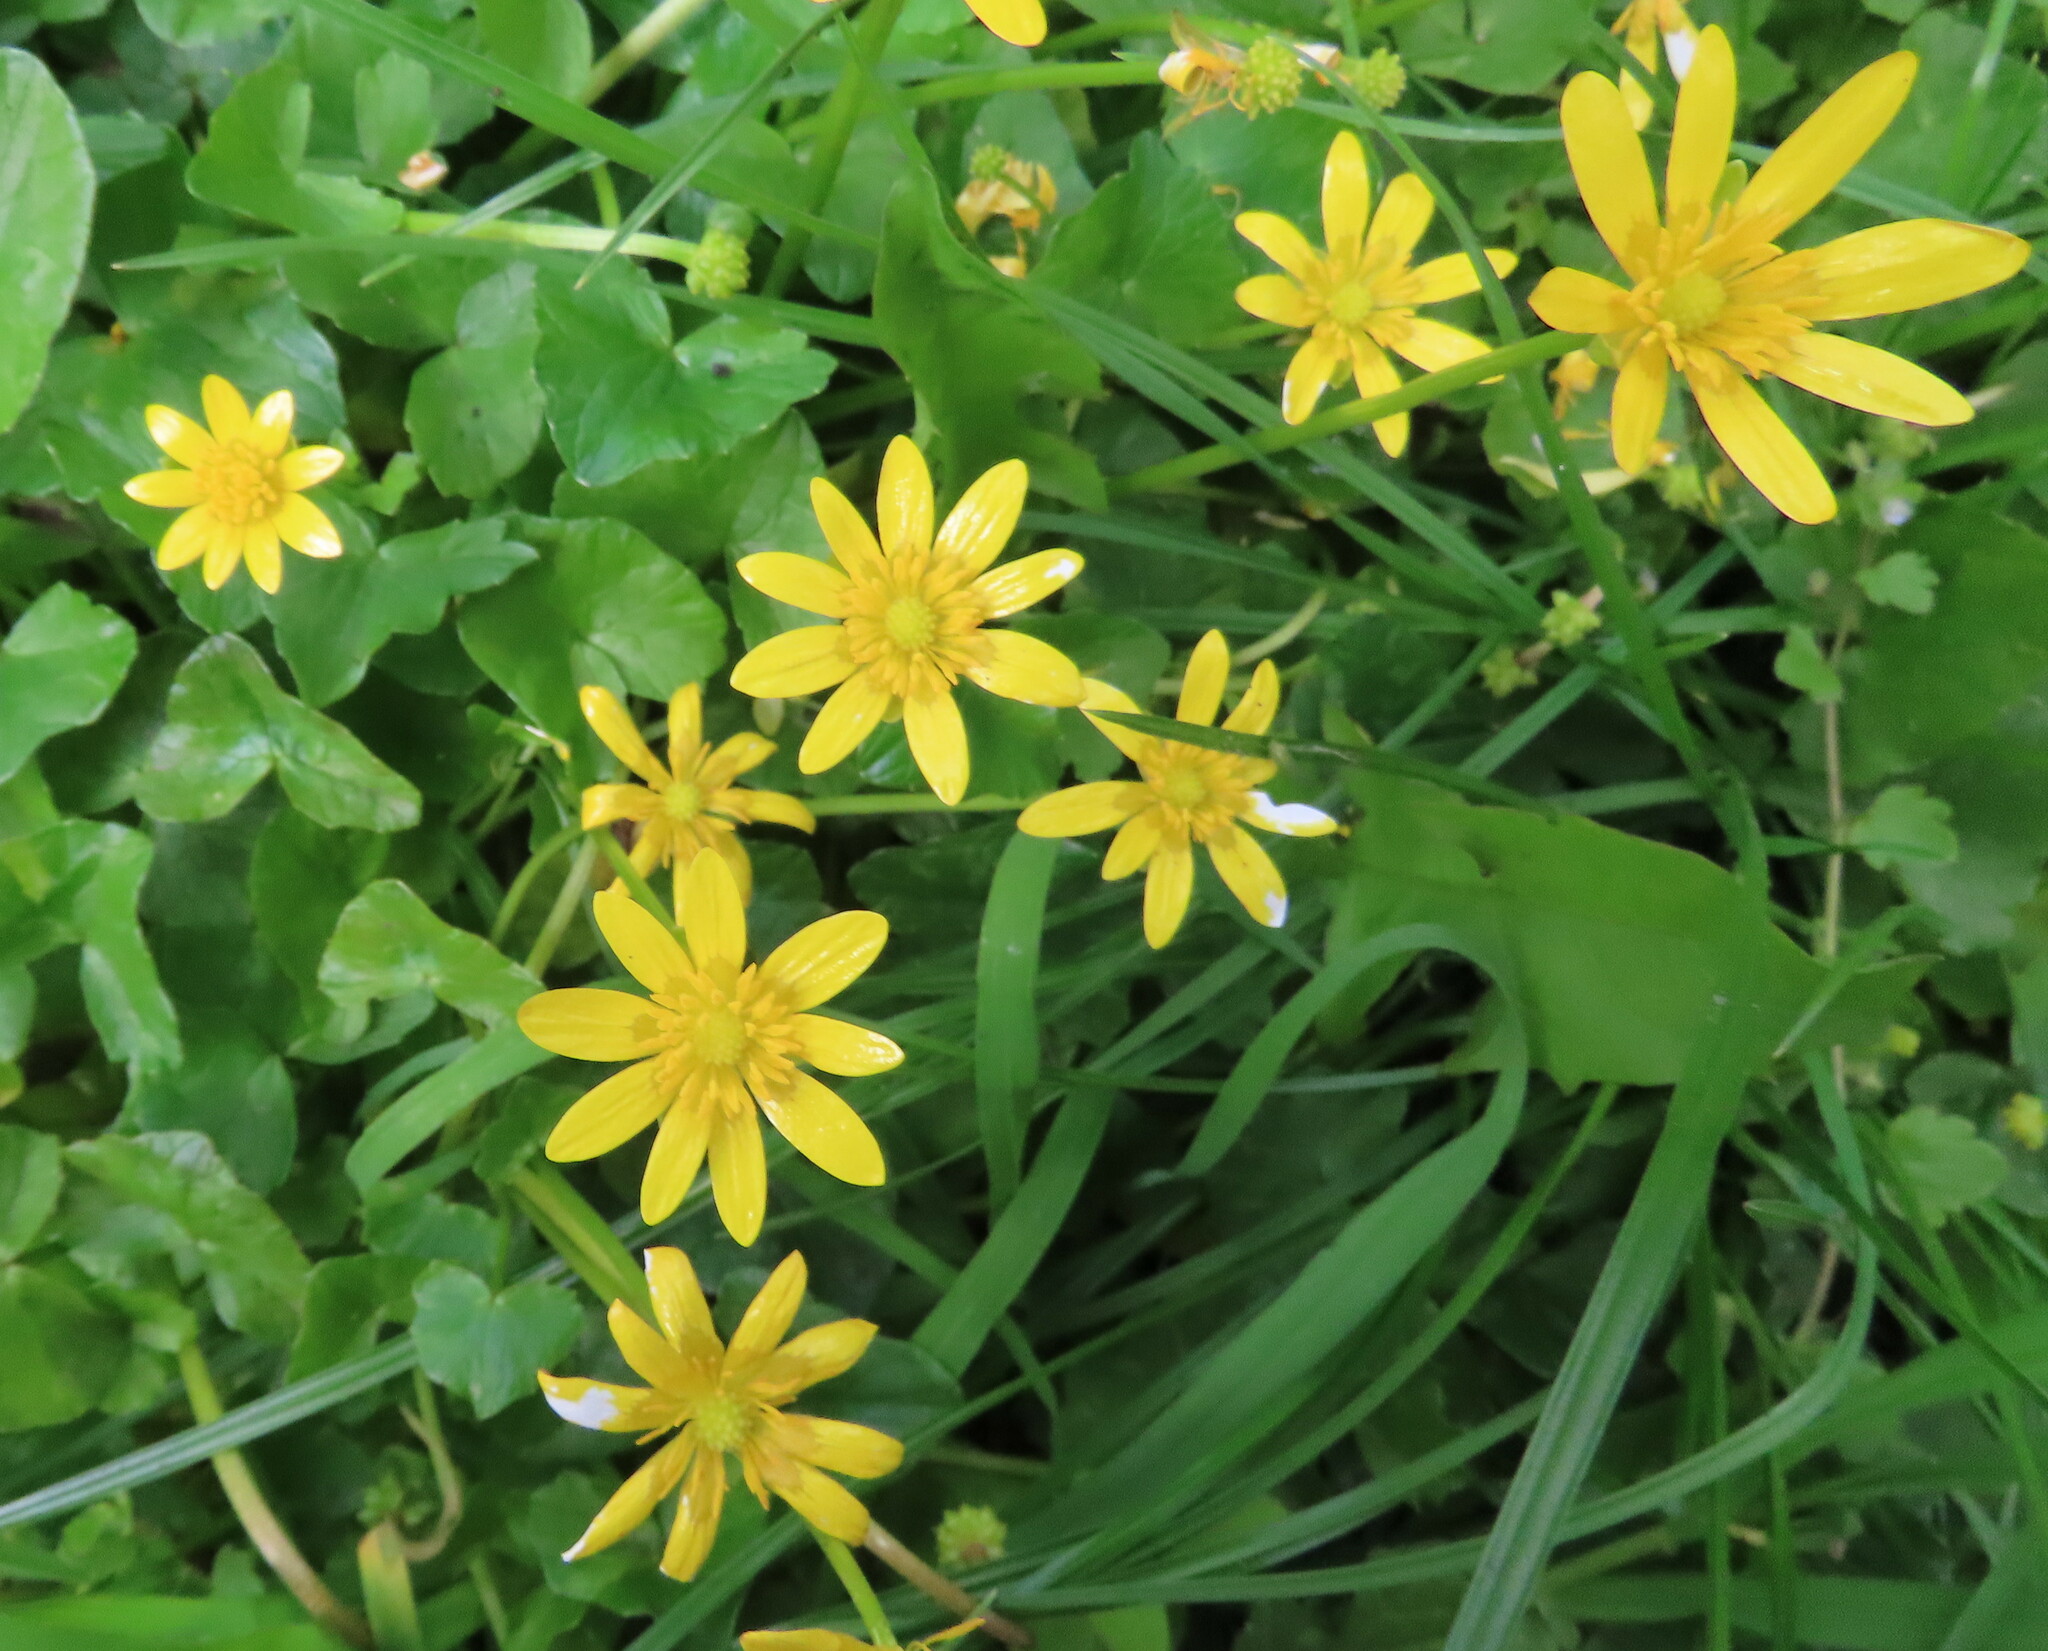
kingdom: Plantae
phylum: Tracheophyta
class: Magnoliopsida
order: Ranunculales
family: Ranunculaceae
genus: Ficaria
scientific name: Ficaria verna
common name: Lesser celandine
